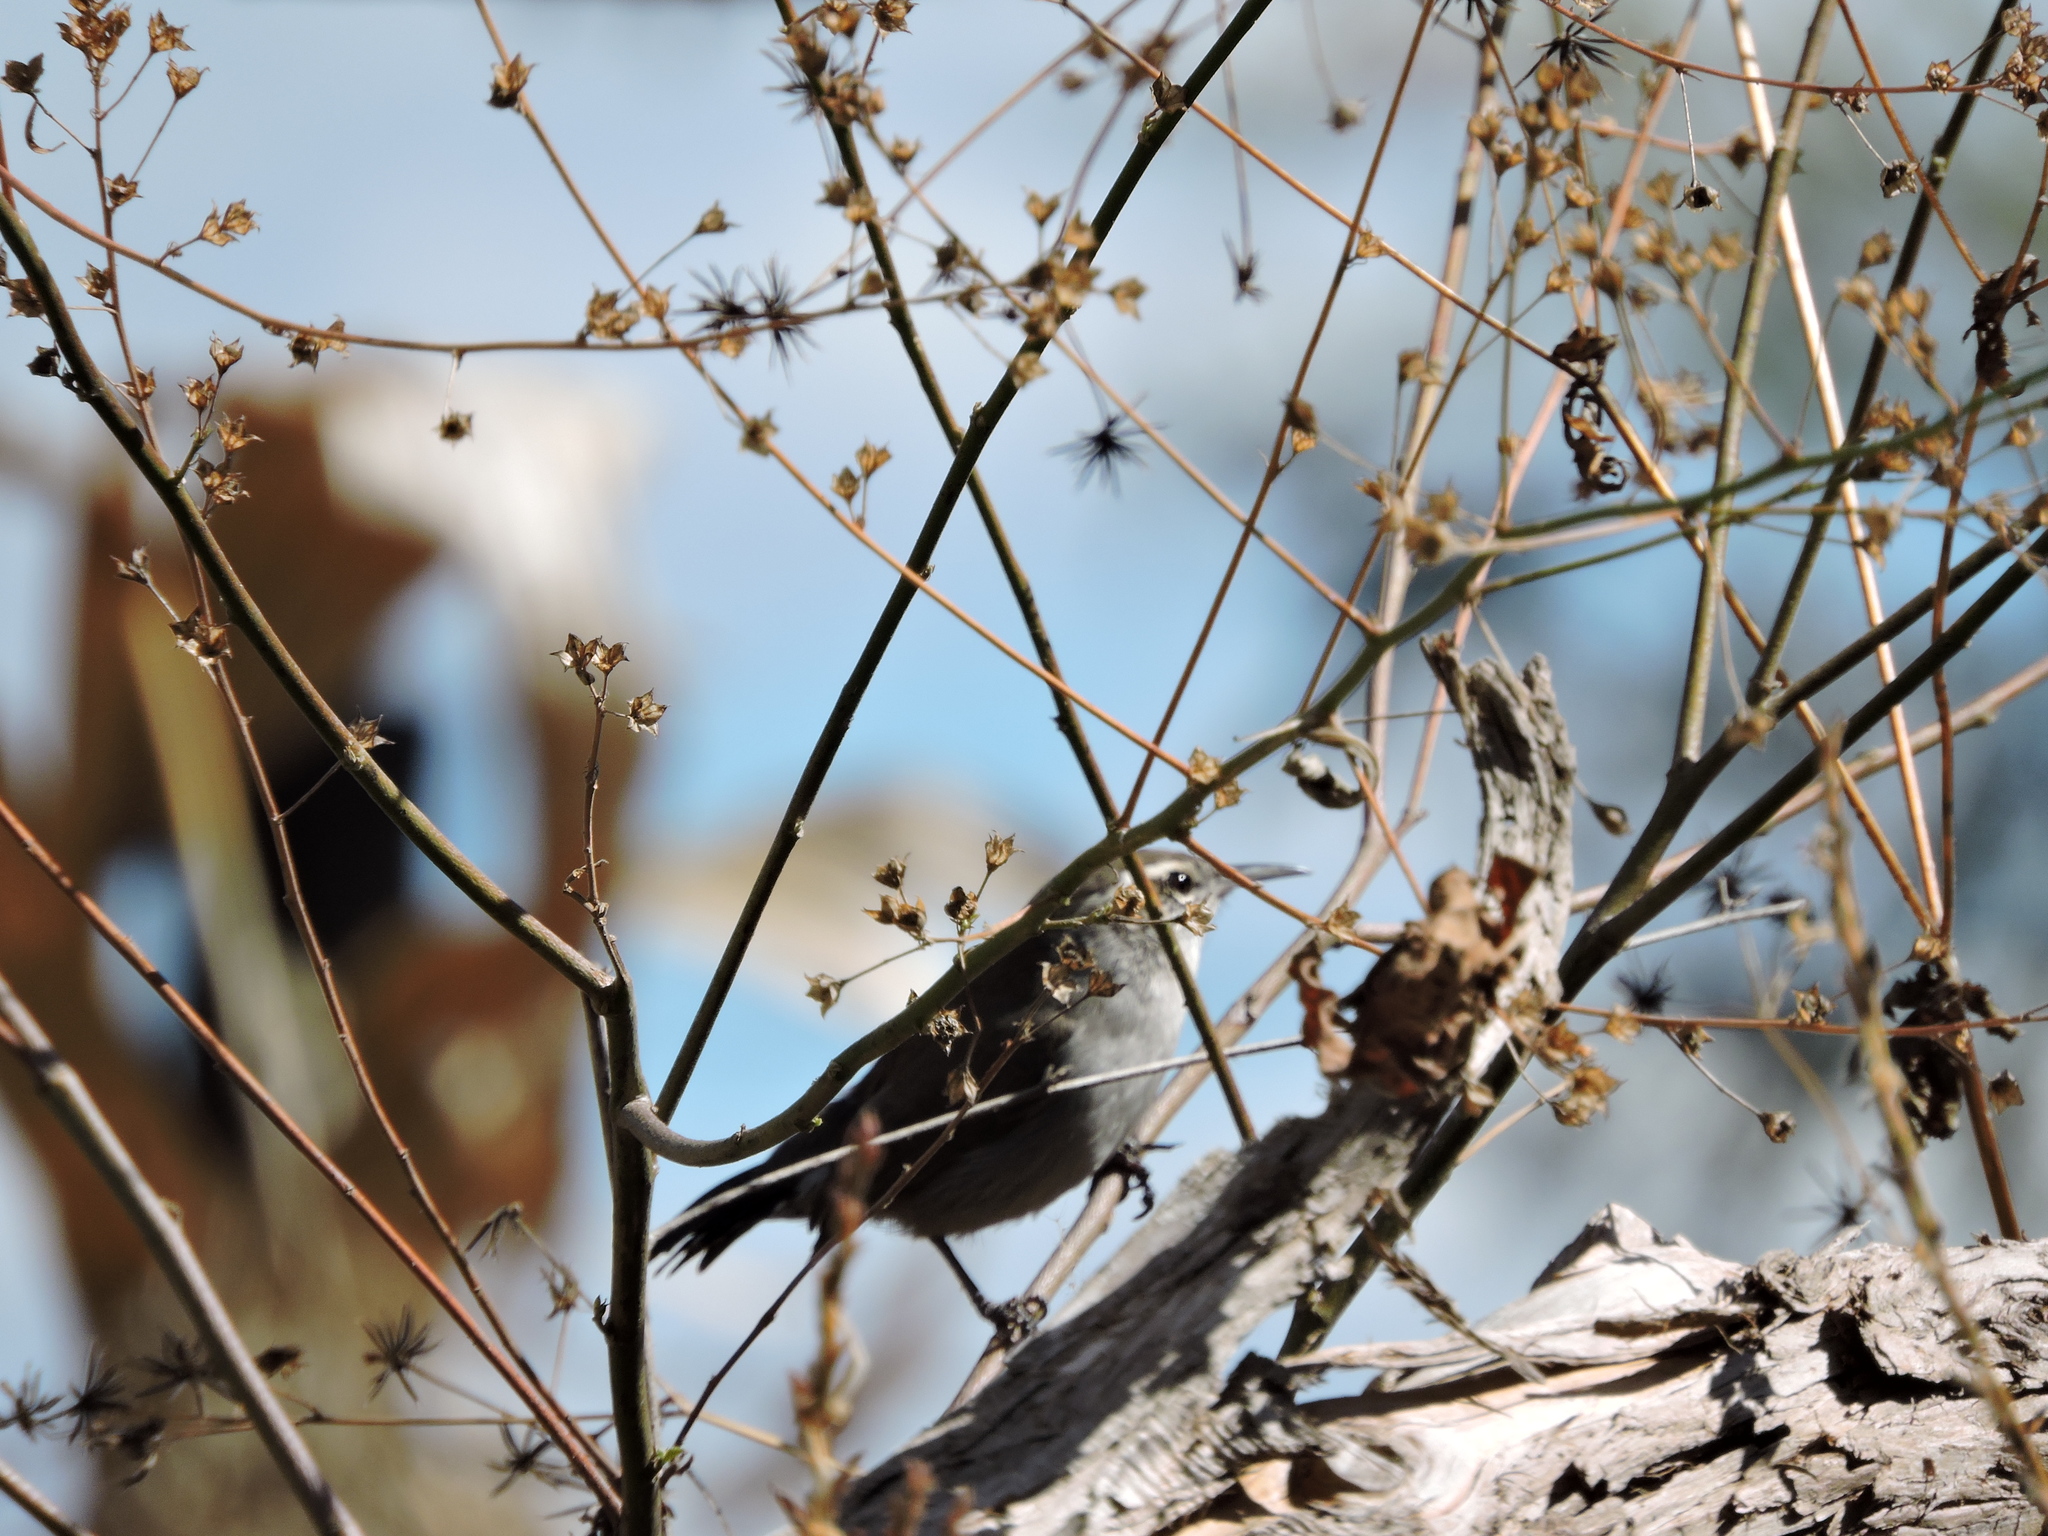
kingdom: Animalia
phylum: Chordata
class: Aves
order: Passeriformes
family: Troglodytidae
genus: Thryomanes
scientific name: Thryomanes bewickii
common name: Bewick's wren
